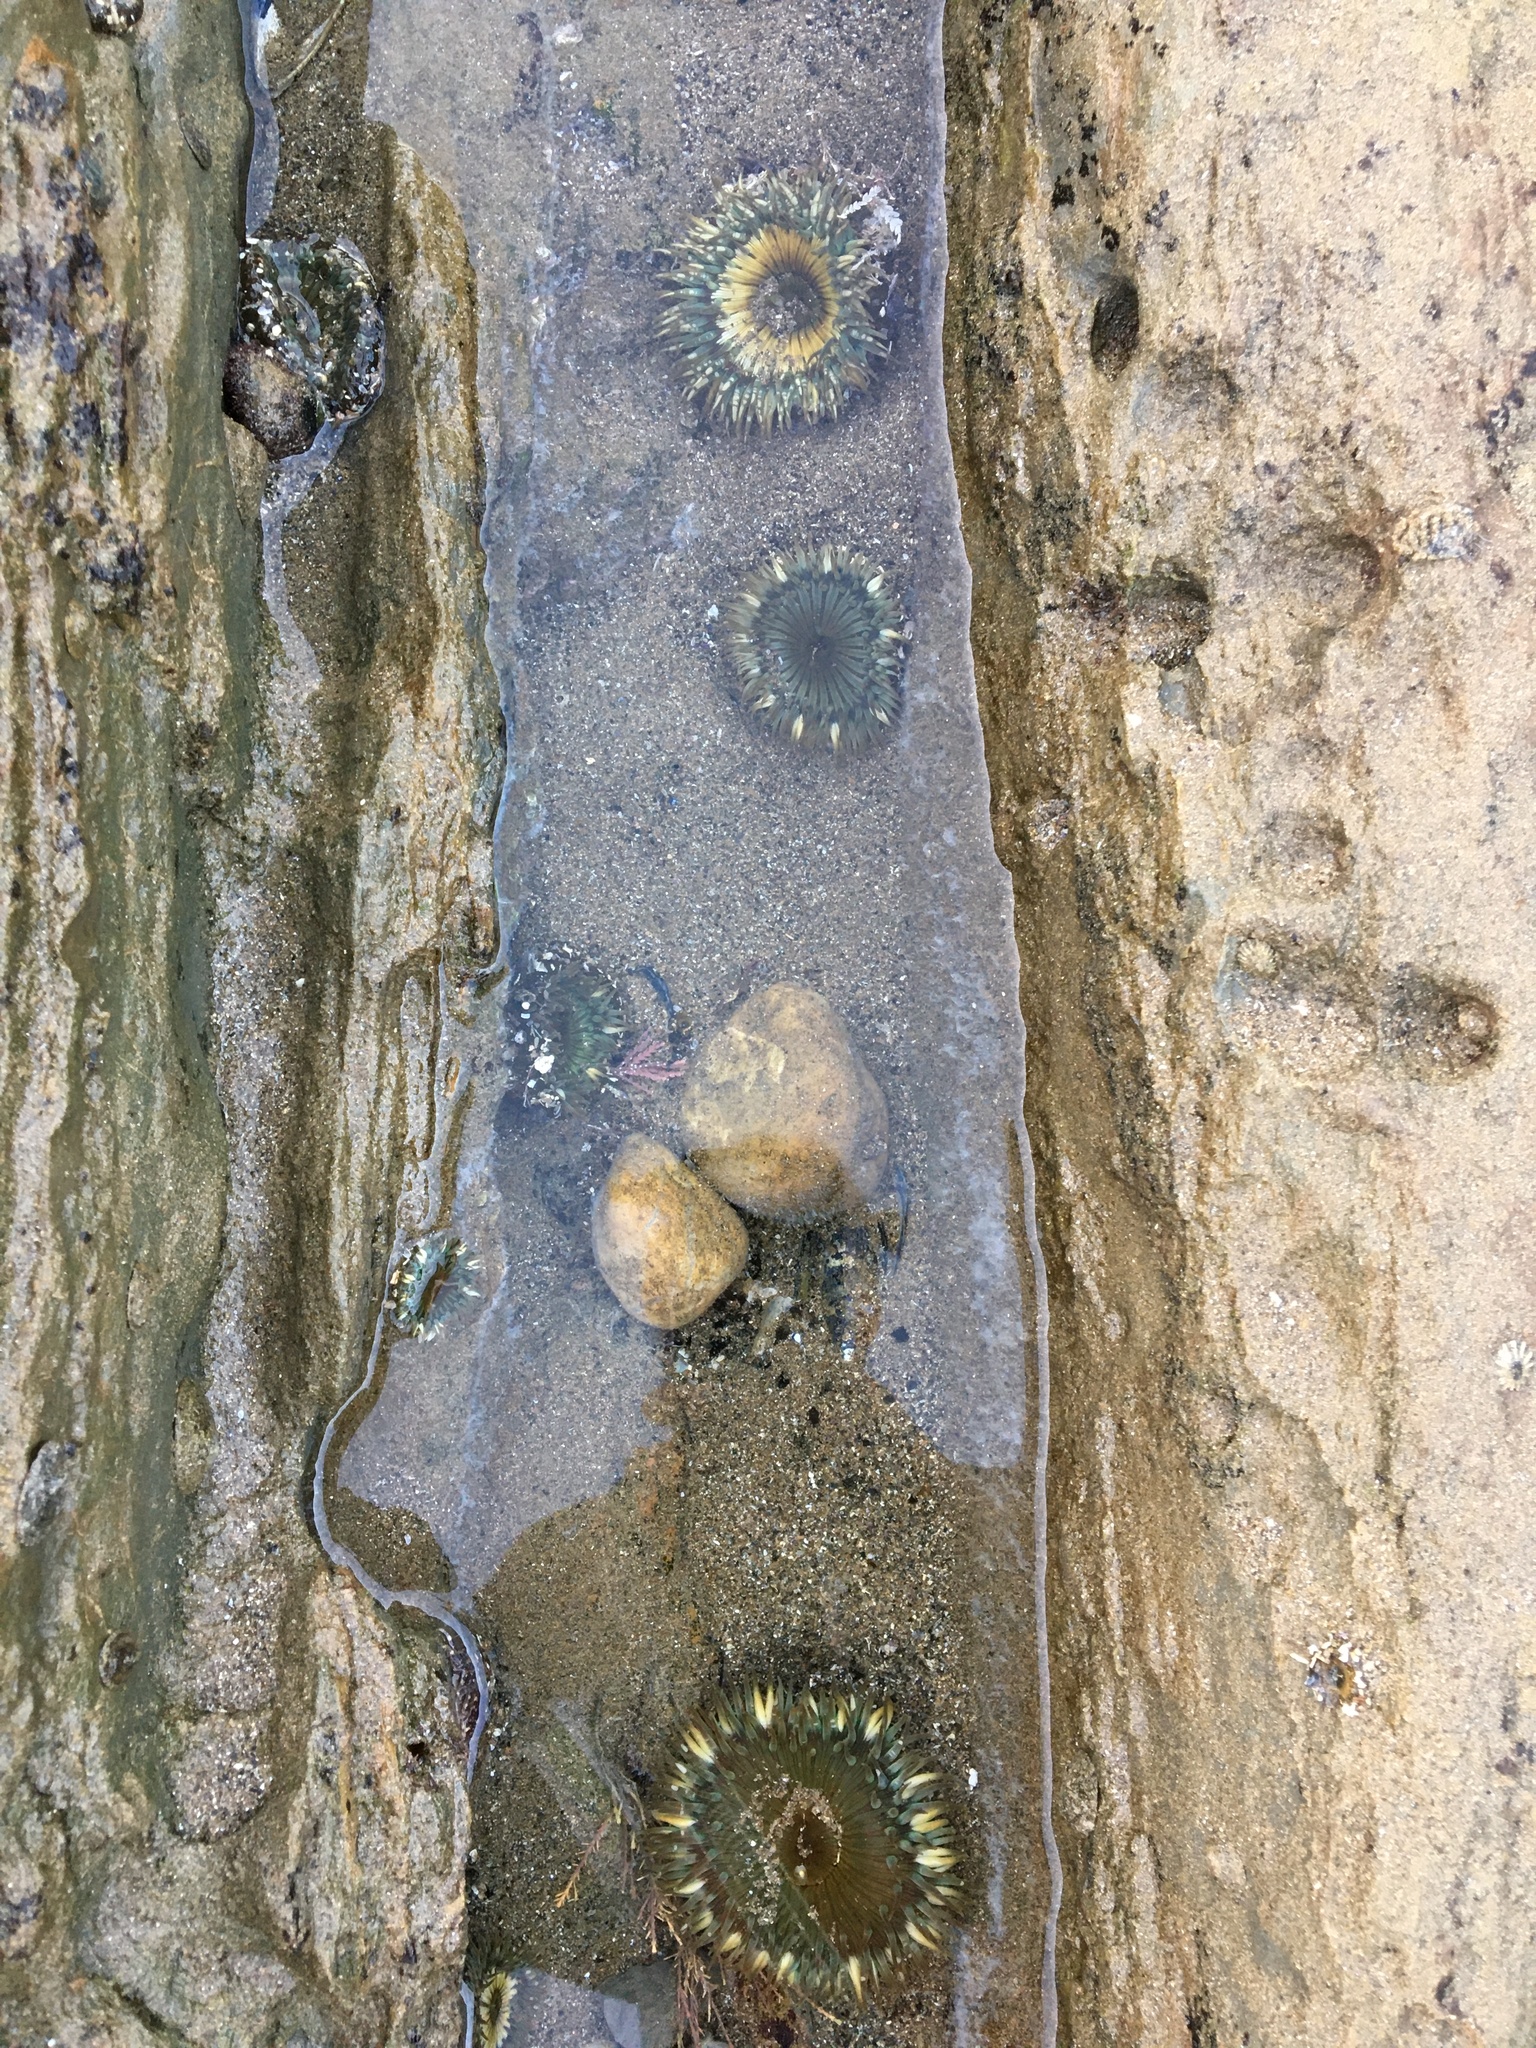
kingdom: Animalia
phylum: Cnidaria
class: Anthozoa
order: Actiniaria
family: Actiniidae
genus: Anthopleura
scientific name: Anthopleura sola
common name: Sun anemone
